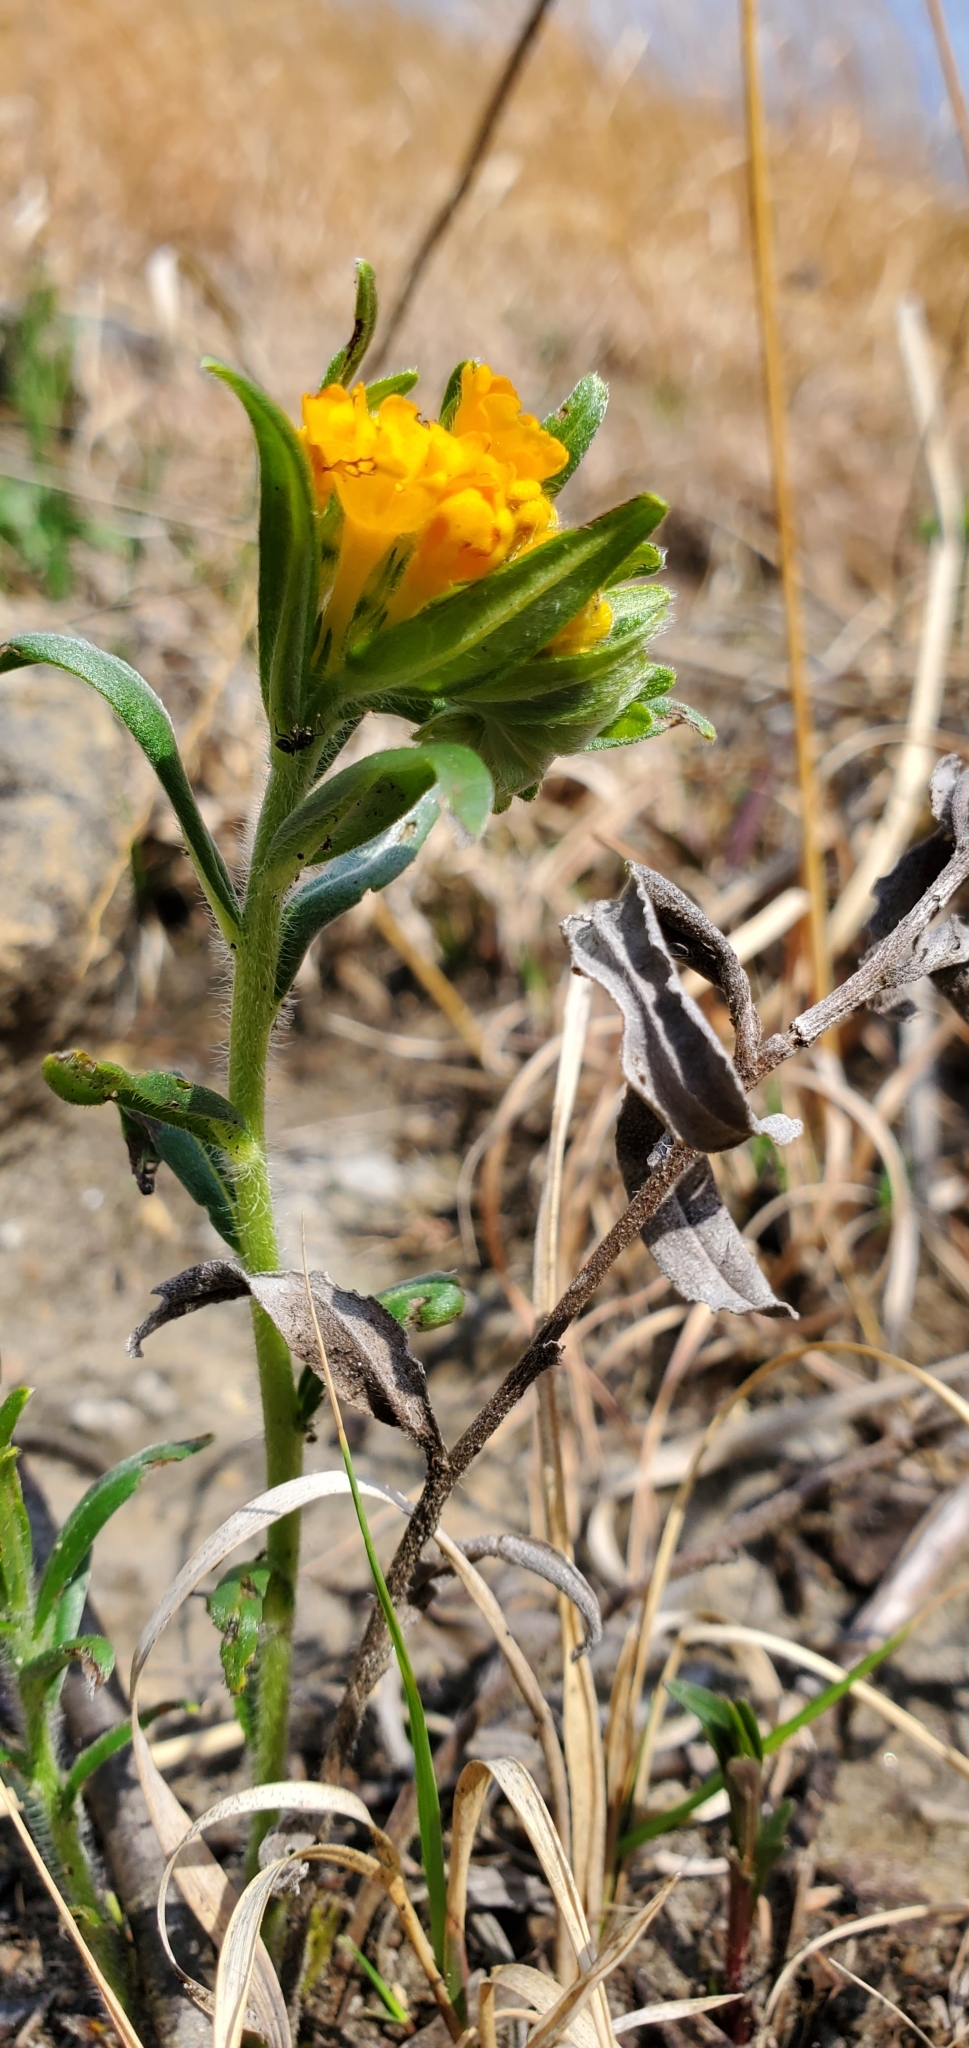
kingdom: Plantae
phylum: Tracheophyta
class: Magnoliopsida
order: Boraginales
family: Boraginaceae
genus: Lithospermum
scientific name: Lithospermum canescens
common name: Hoary puccoon
